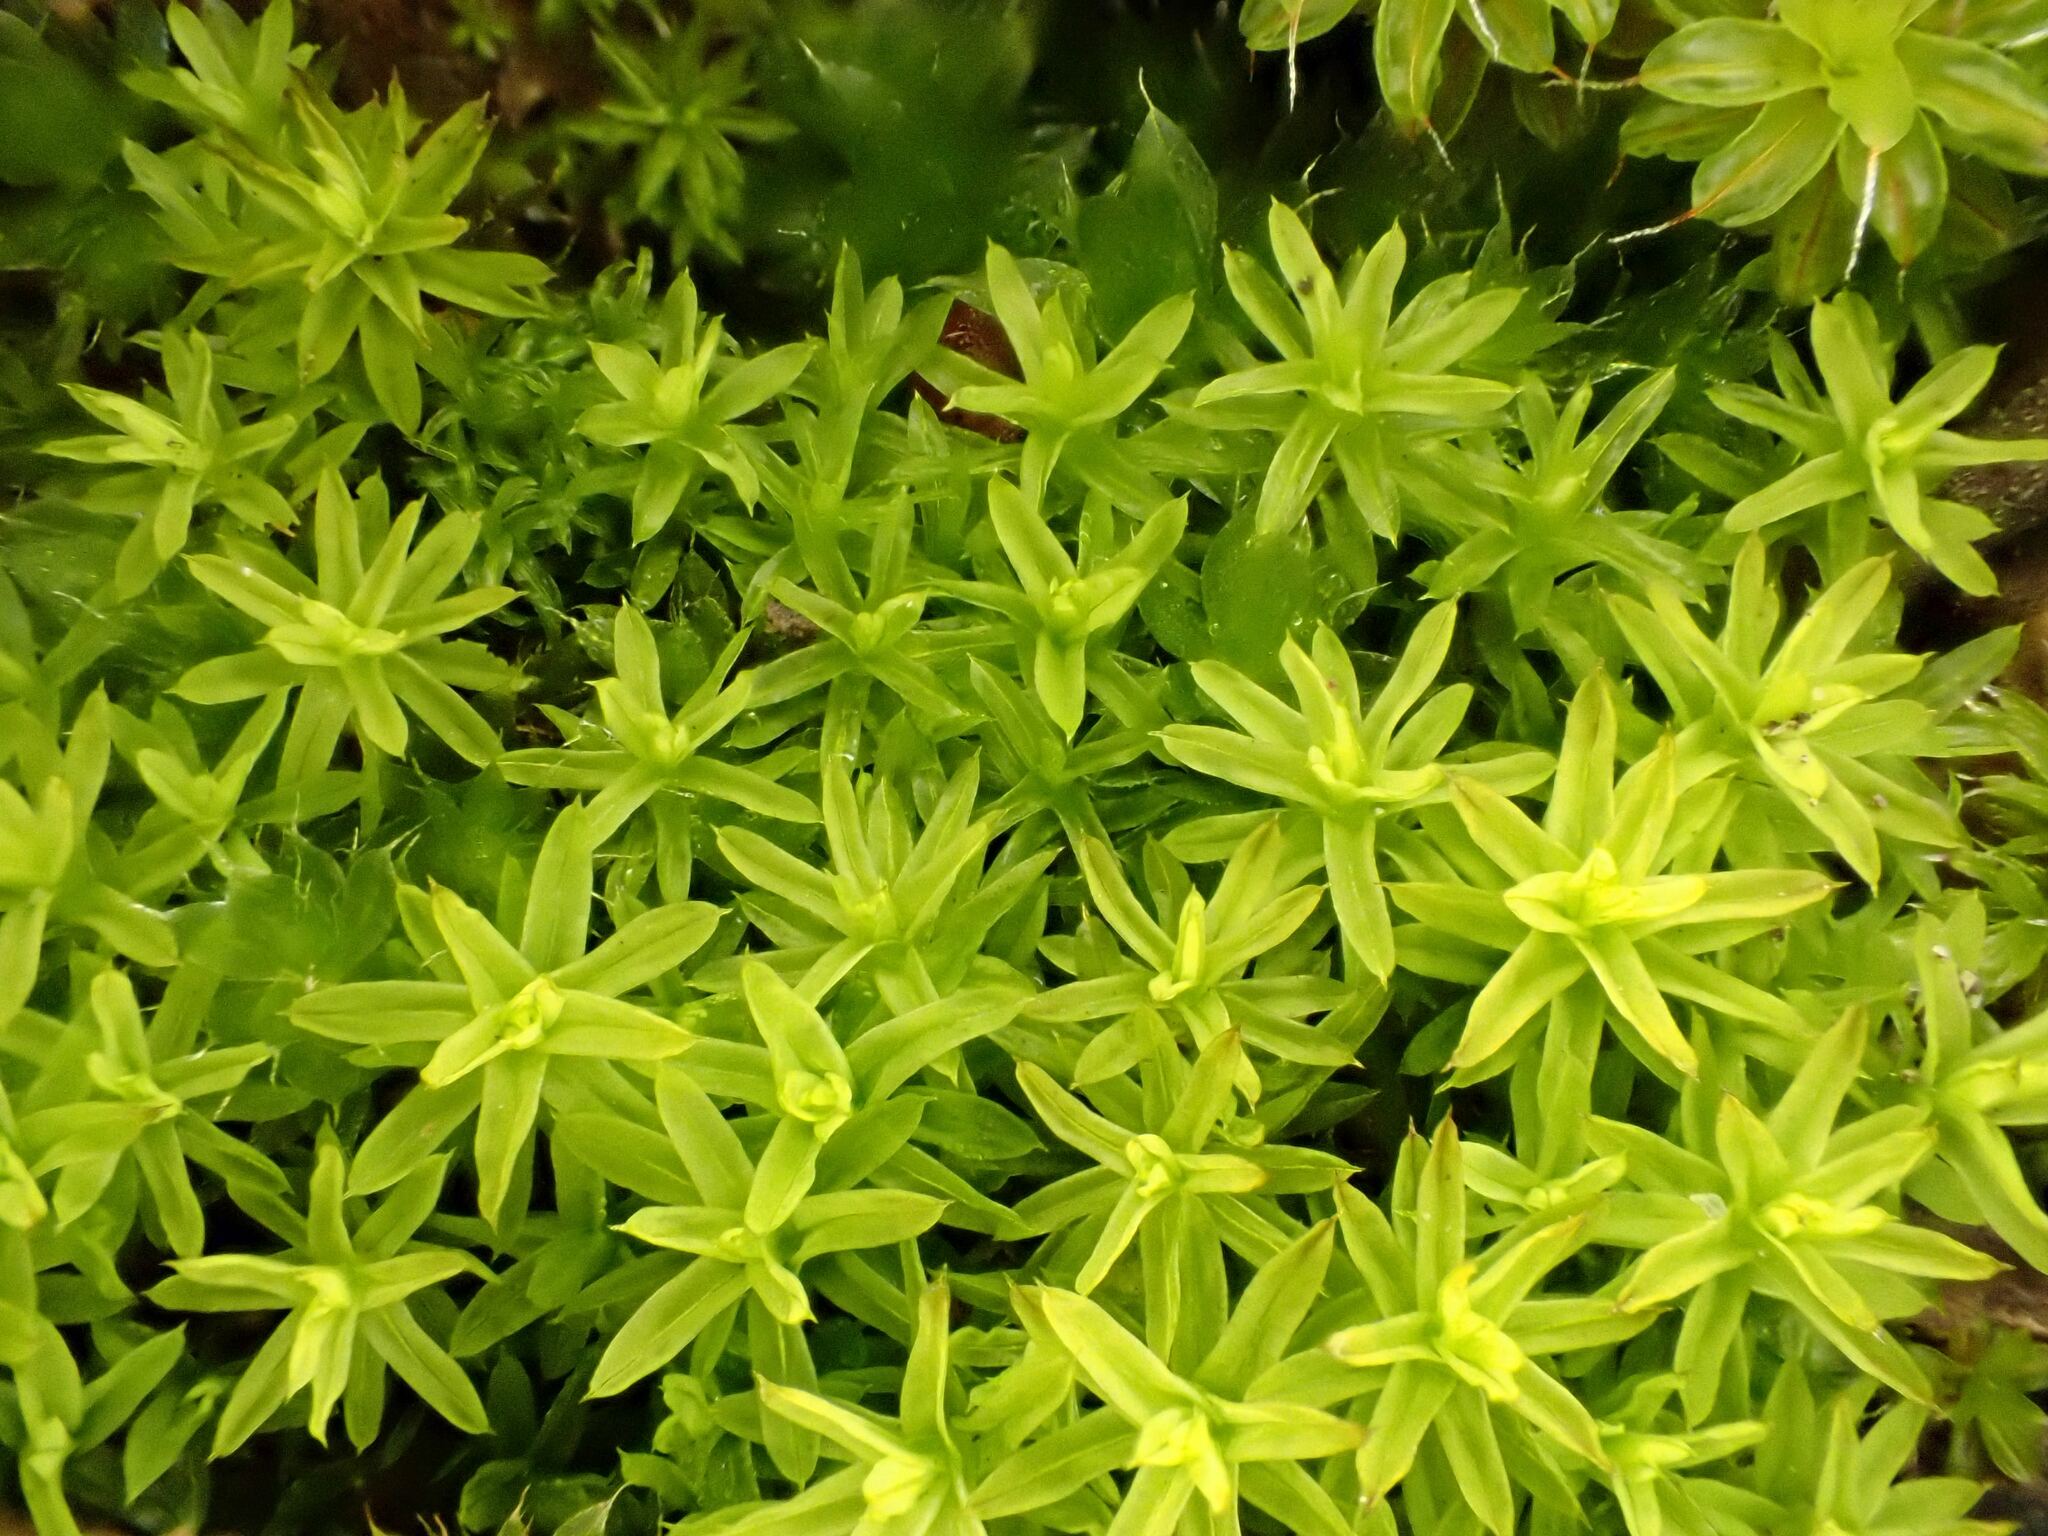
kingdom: Plantae
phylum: Bryophyta
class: Bryopsida
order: Pottiales
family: Pottiaceae
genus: Barbula
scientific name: Barbula unguiculata
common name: Prickly beard moss
